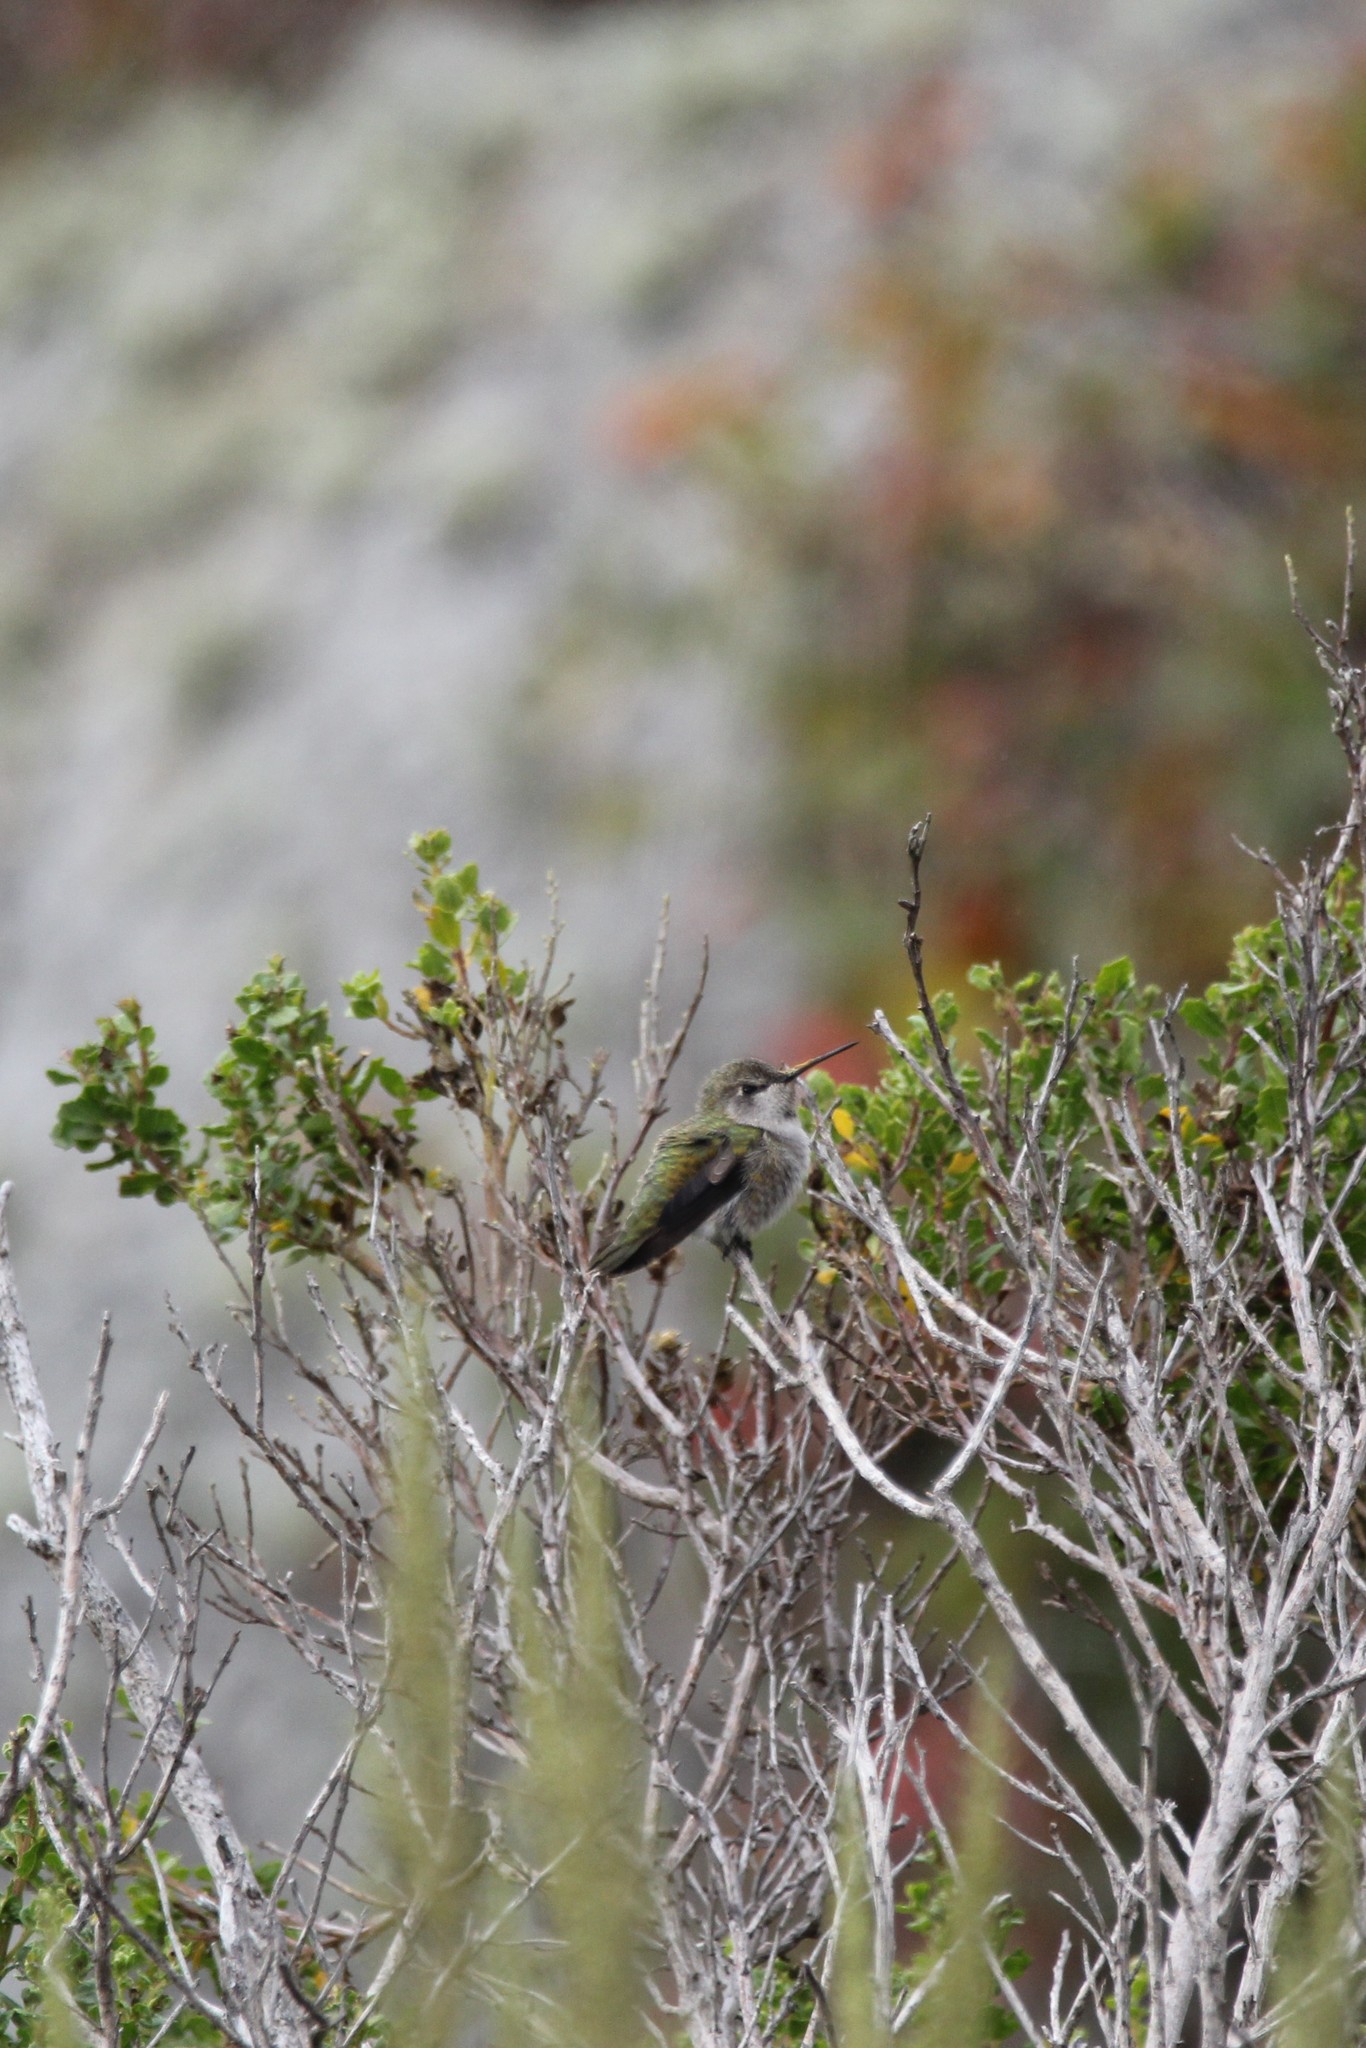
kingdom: Animalia
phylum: Chordata
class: Aves
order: Apodiformes
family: Trochilidae
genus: Calypte
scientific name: Calypte anna
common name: Anna's hummingbird
